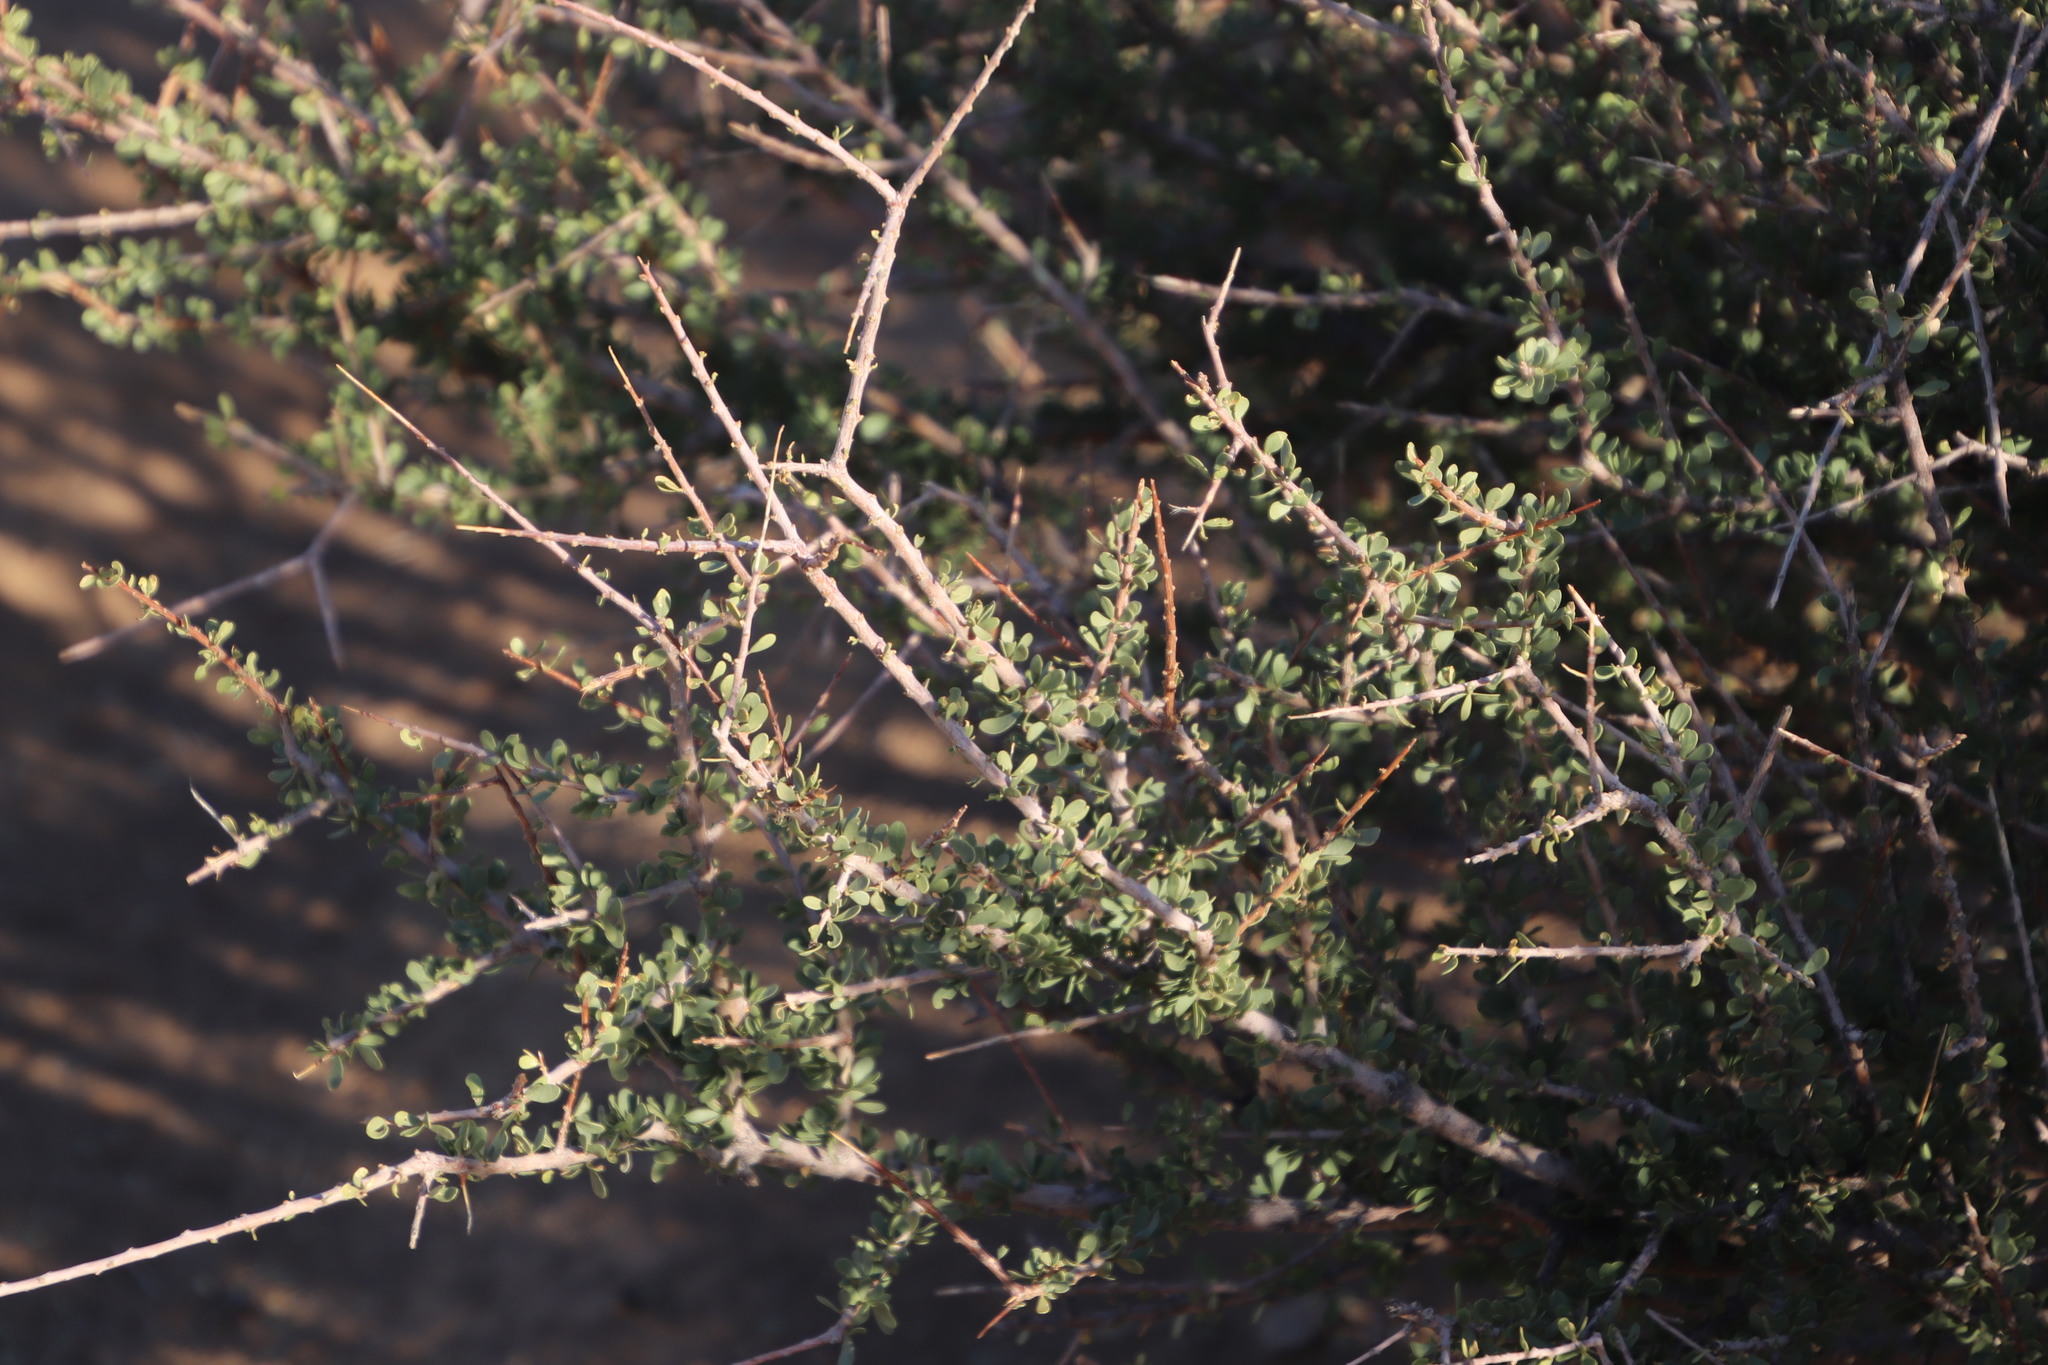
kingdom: Plantae
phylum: Tracheophyta
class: Magnoliopsida
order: Brassicales
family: Capparaceae
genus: Boscia
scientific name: Boscia foetida
